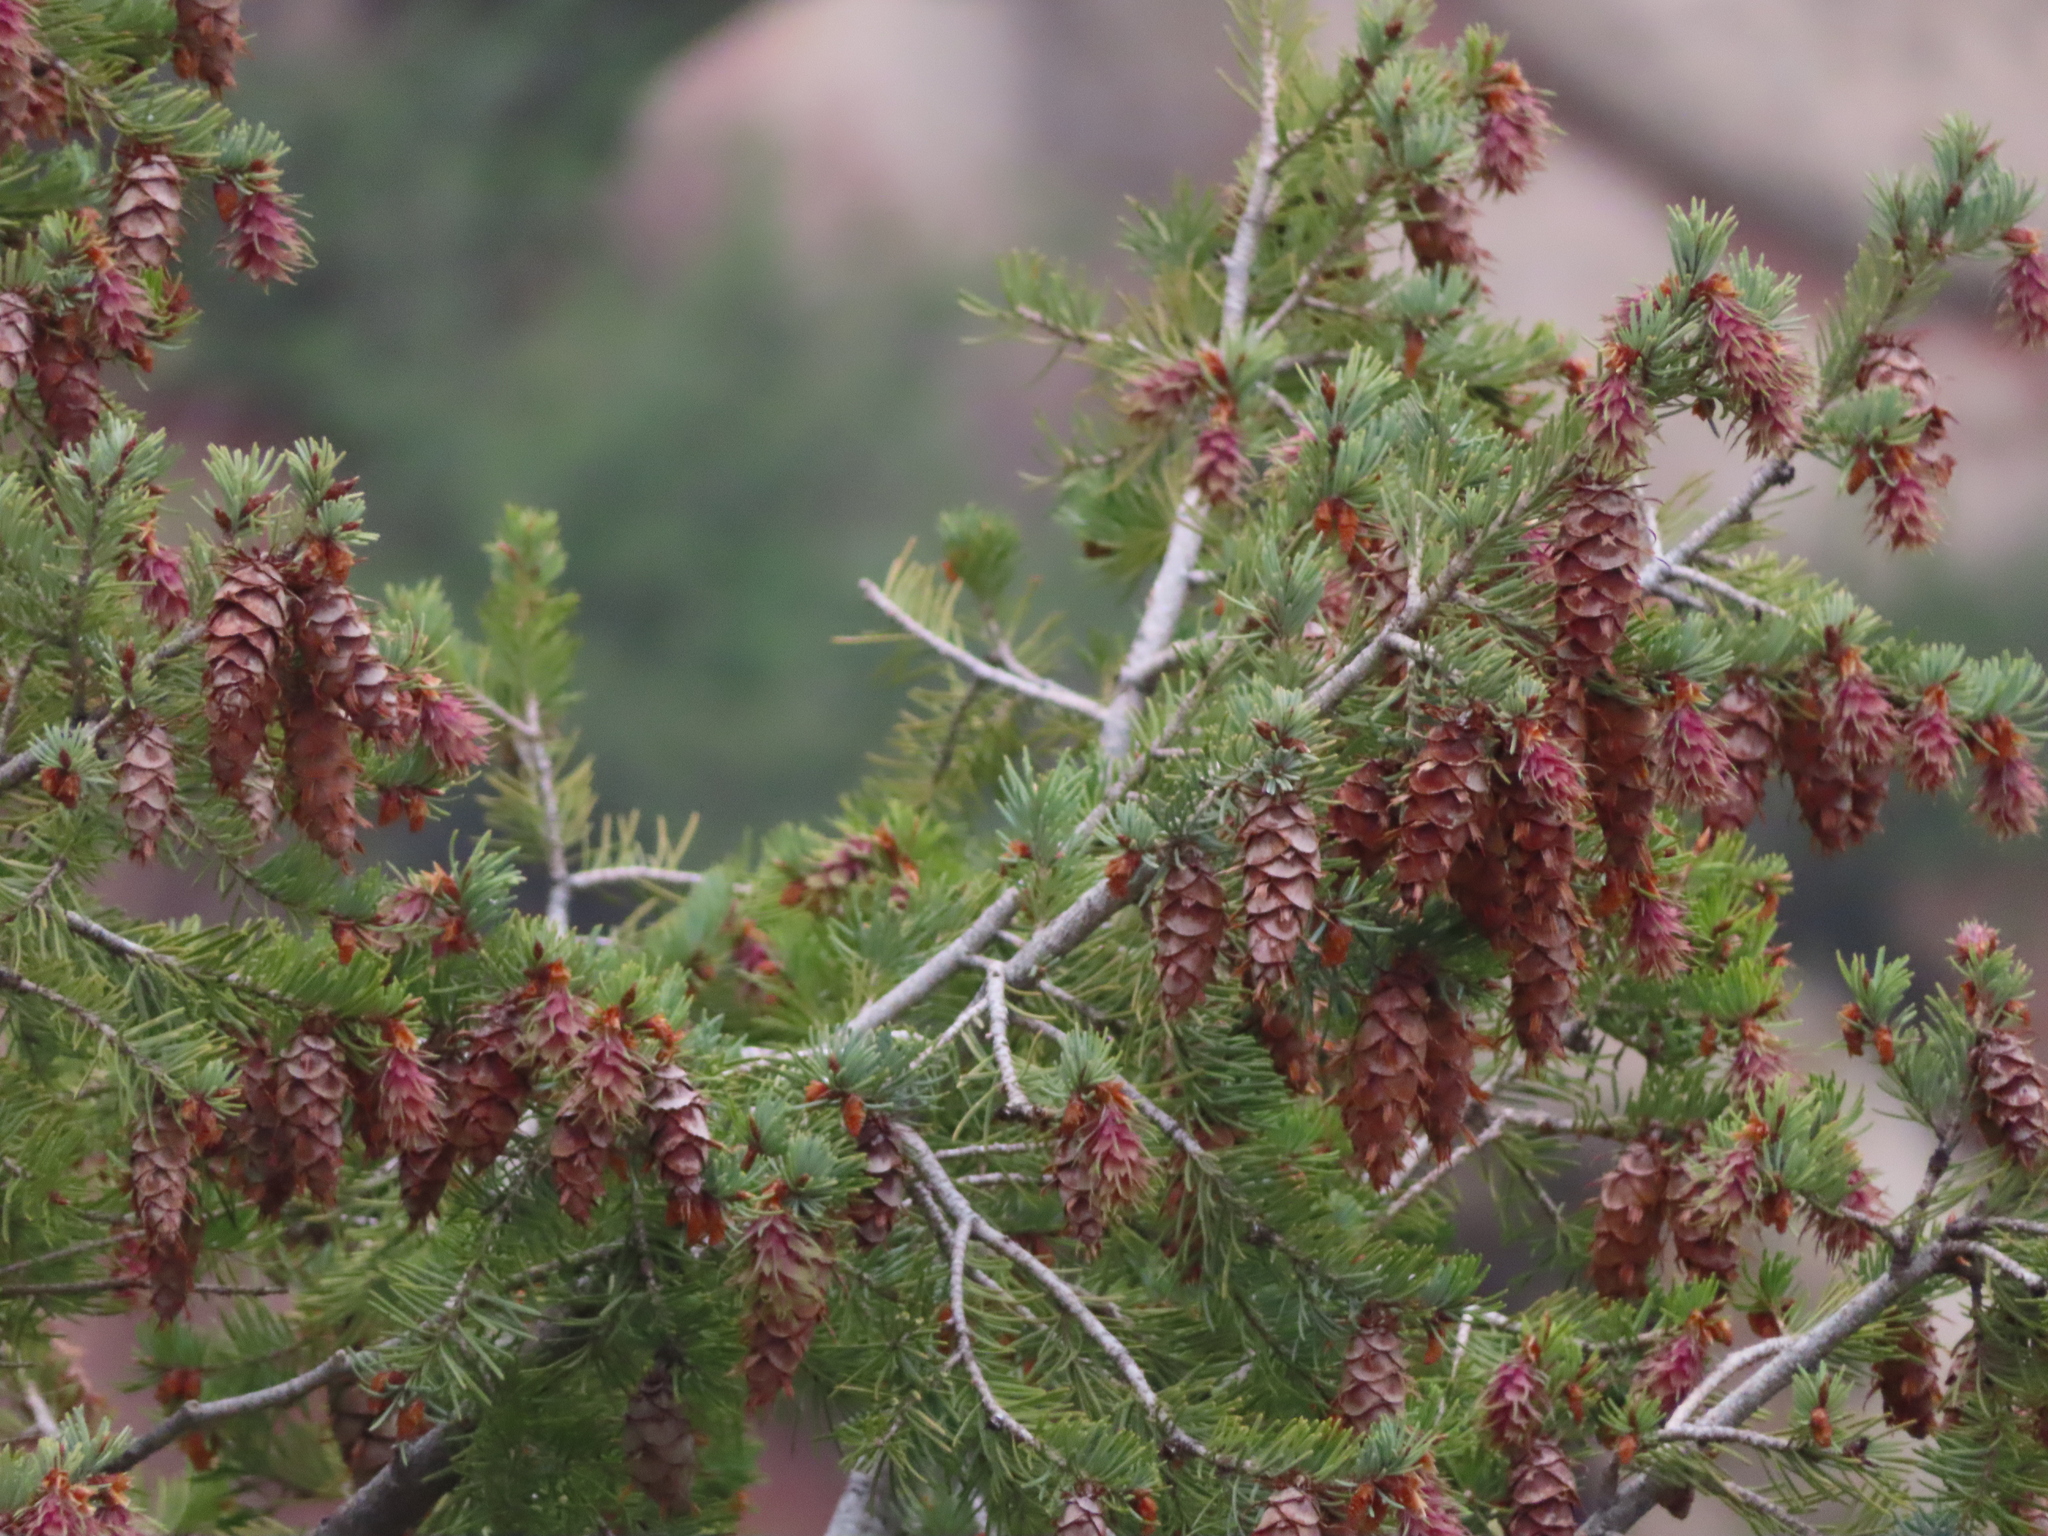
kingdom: Plantae
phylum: Tracheophyta
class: Pinopsida
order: Pinales
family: Pinaceae
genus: Pseudotsuga
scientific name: Pseudotsuga menziesii
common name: Douglas fir
